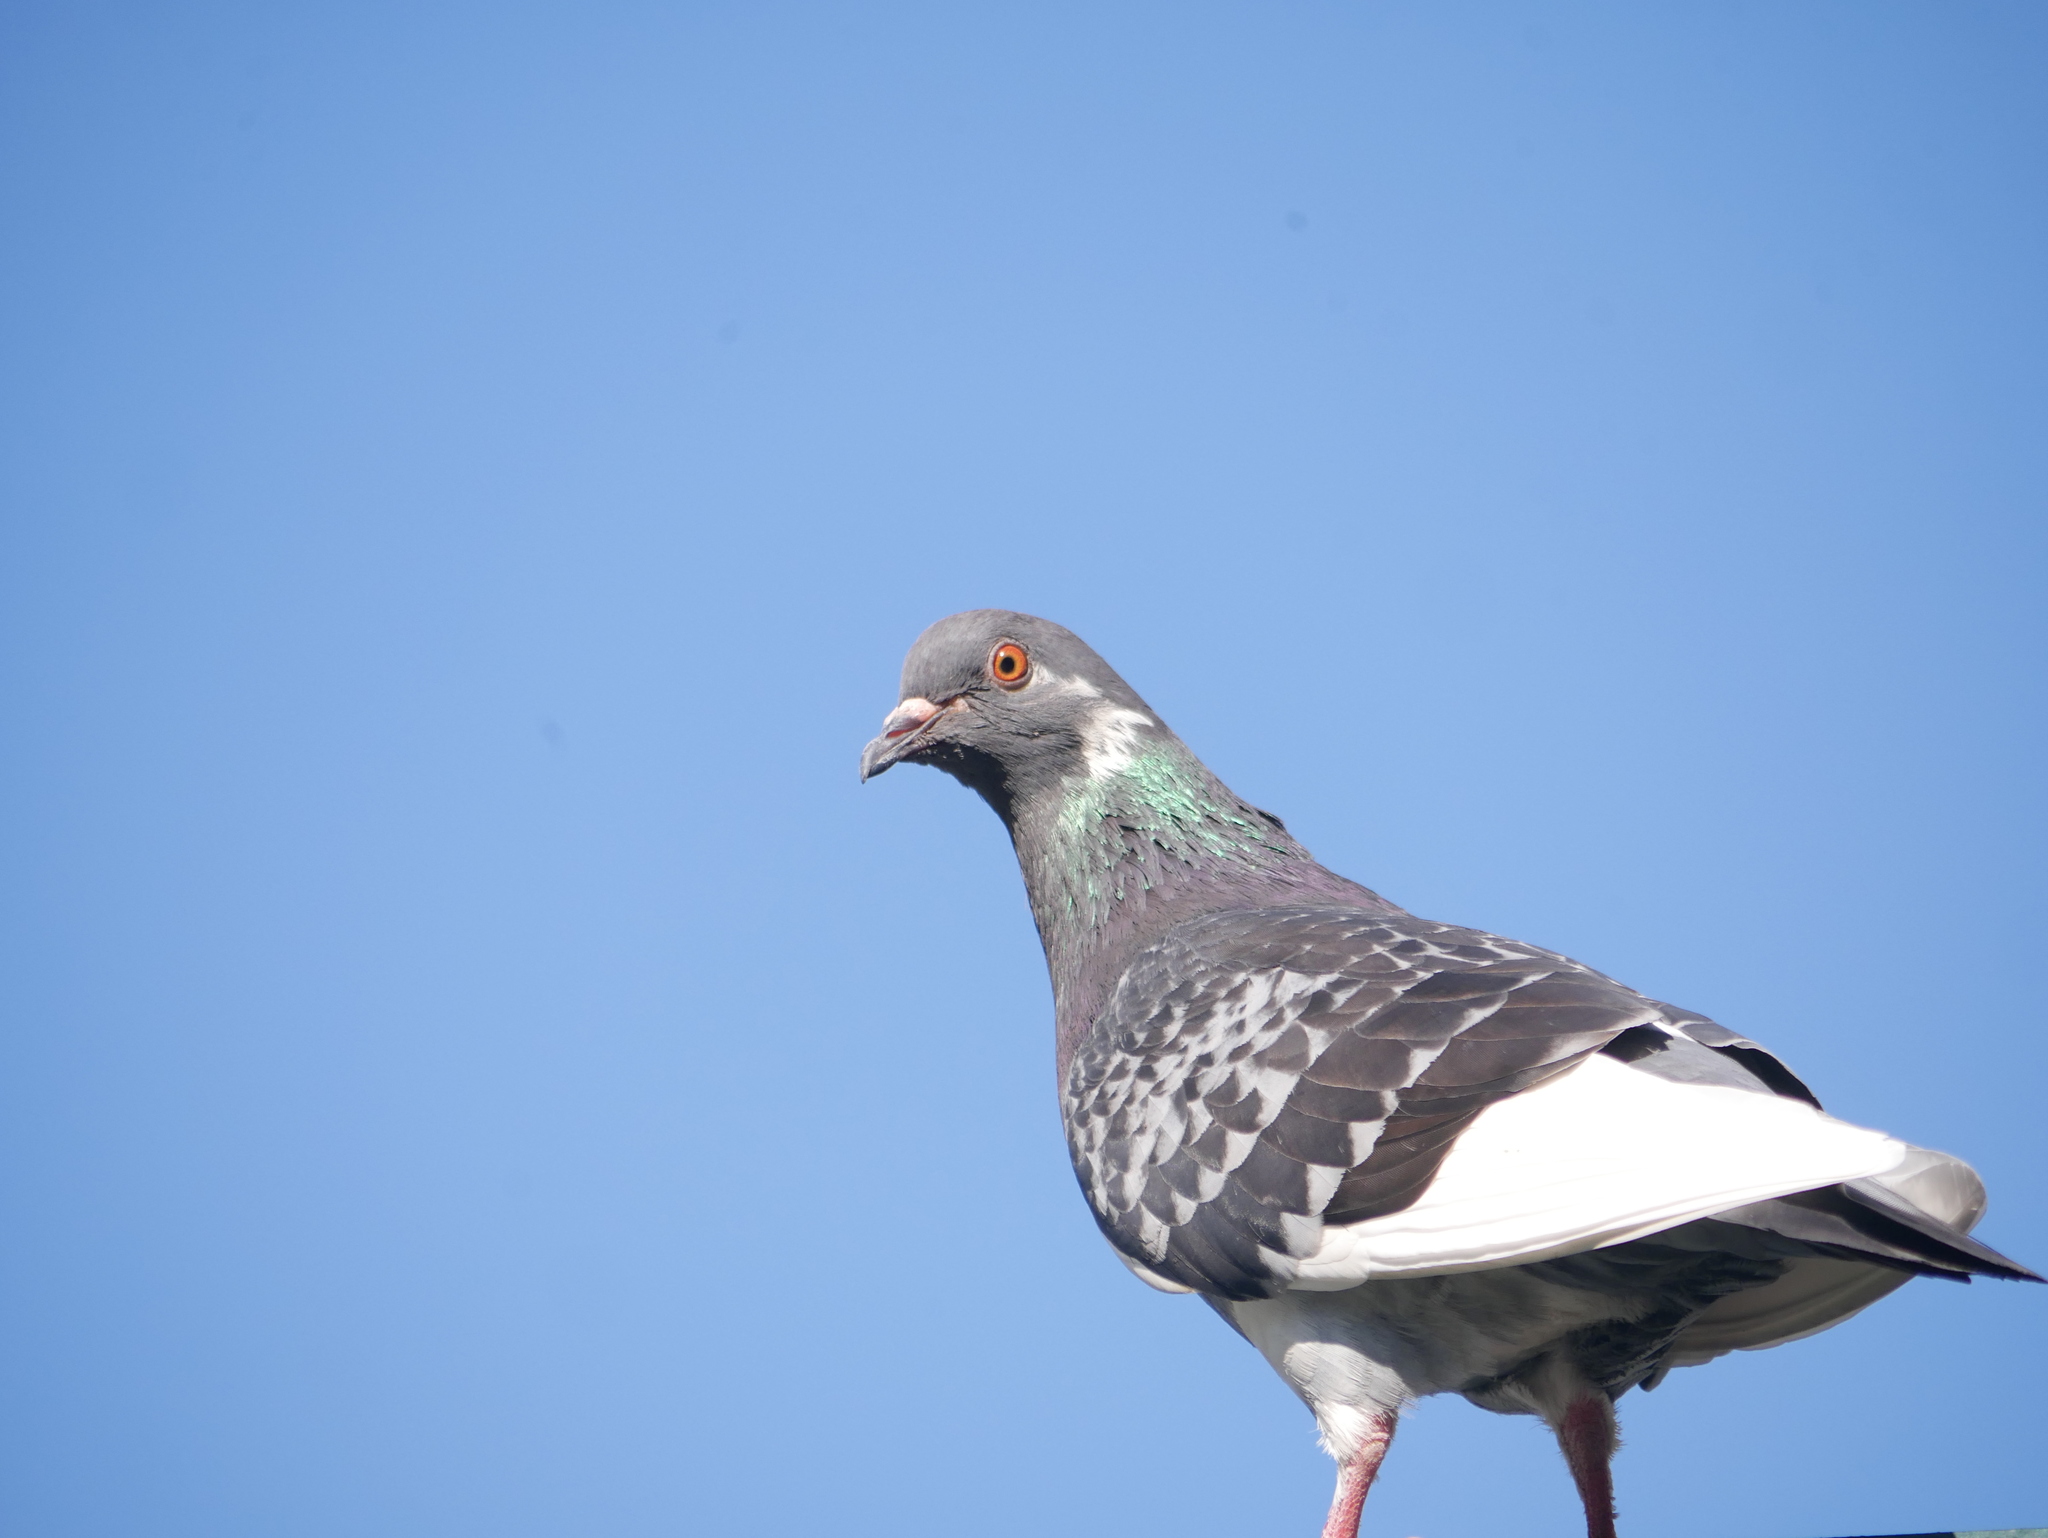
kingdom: Animalia
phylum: Chordata
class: Aves
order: Columbiformes
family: Columbidae
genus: Columba
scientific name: Columba livia
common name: Rock pigeon
